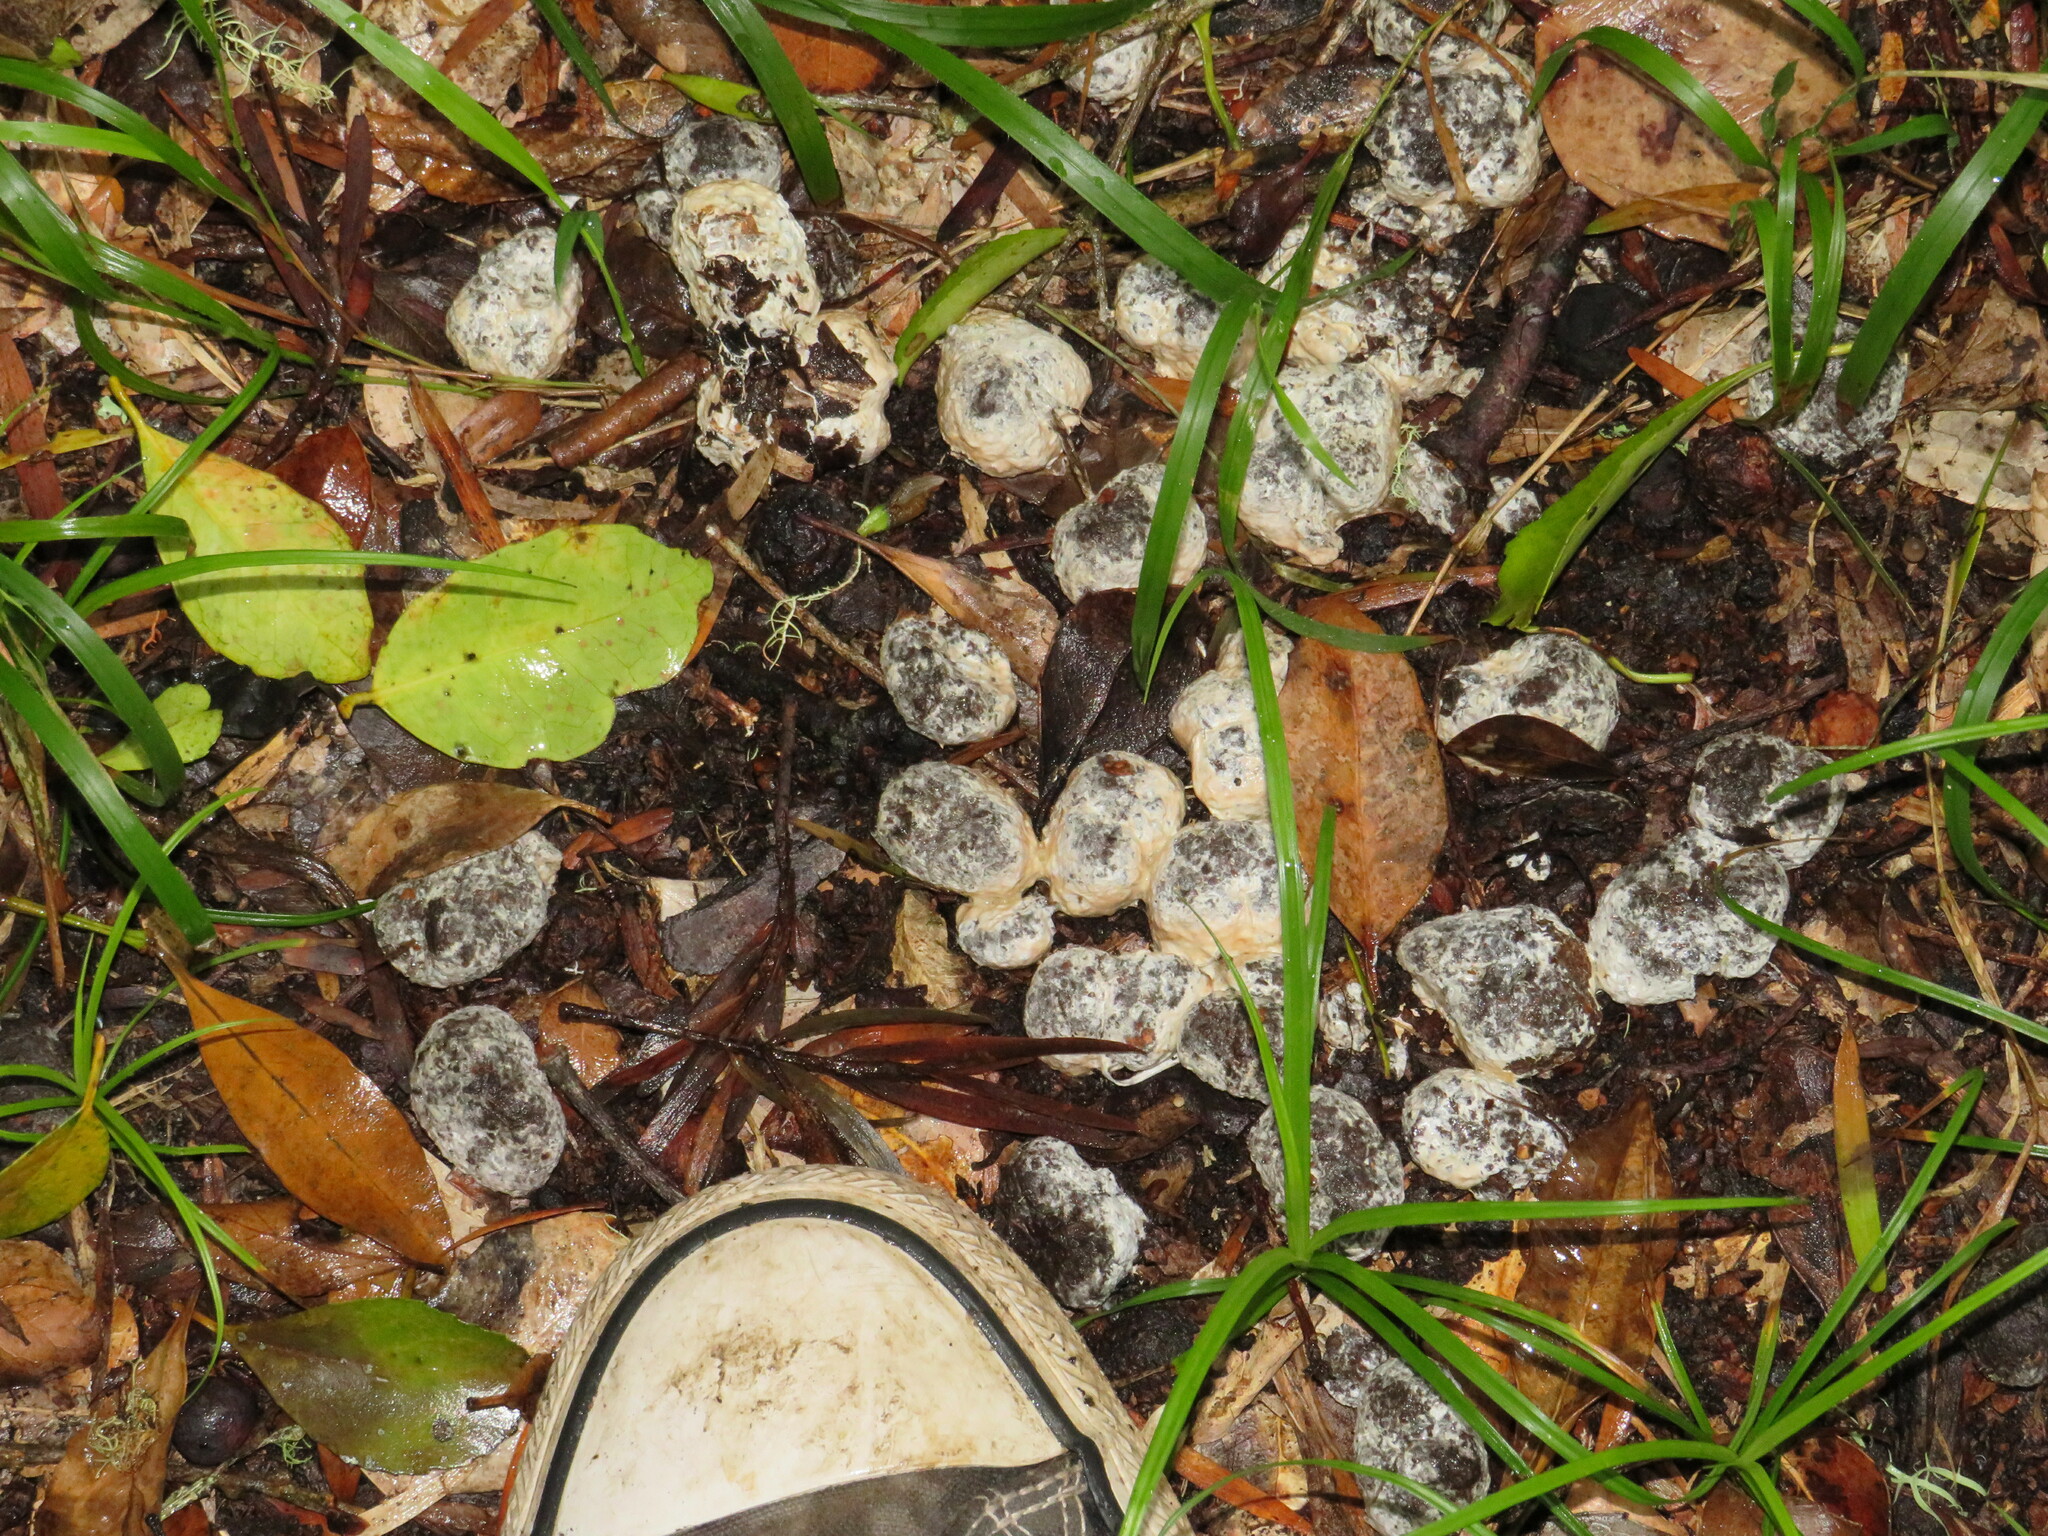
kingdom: Animalia
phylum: Chordata
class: Mammalia
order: Artiodactyla
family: Suidae
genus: Potamochoerus
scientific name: Potamochoerus larvatus
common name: Bushpig
